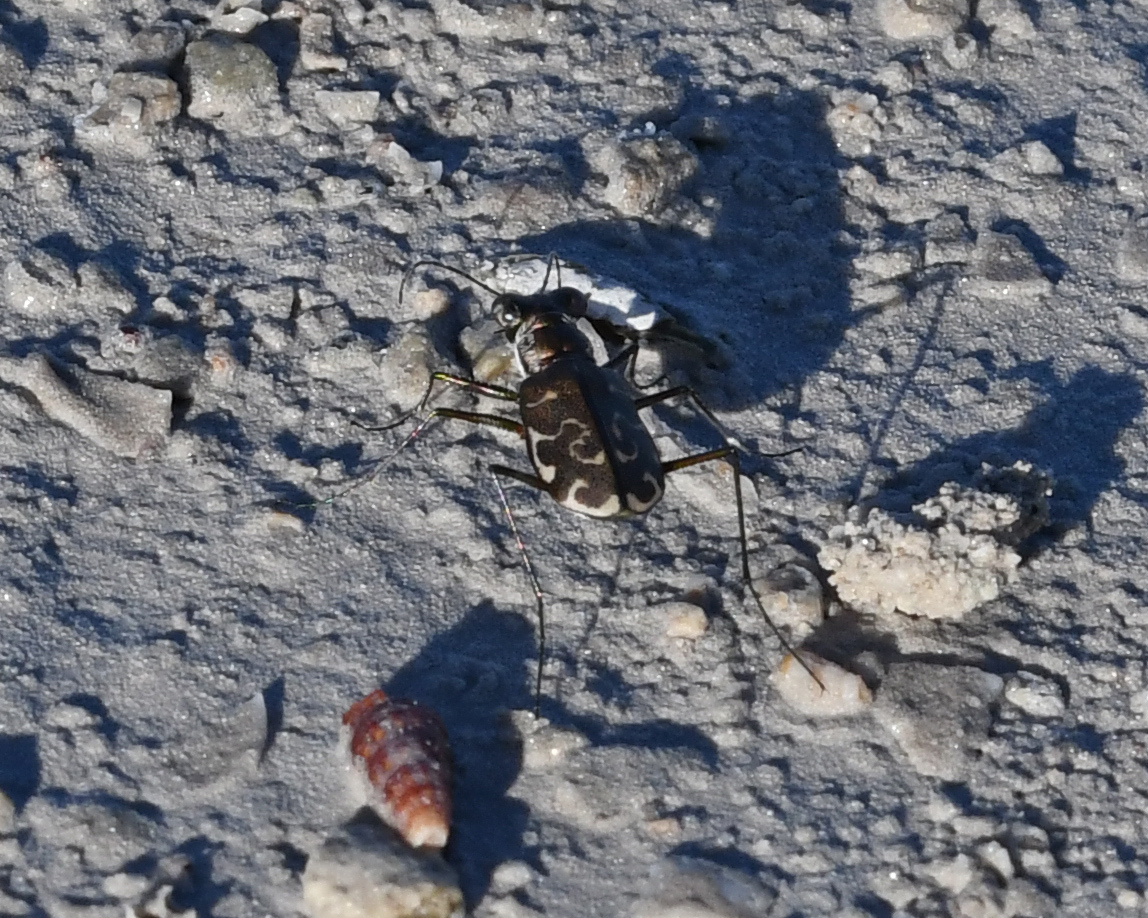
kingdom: Animalia
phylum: Arthropoda
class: Insecta
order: Coleoptera
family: Carabidae
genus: Cicindela
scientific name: Cicindela trifasciata
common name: Mudflat tiger beetle
